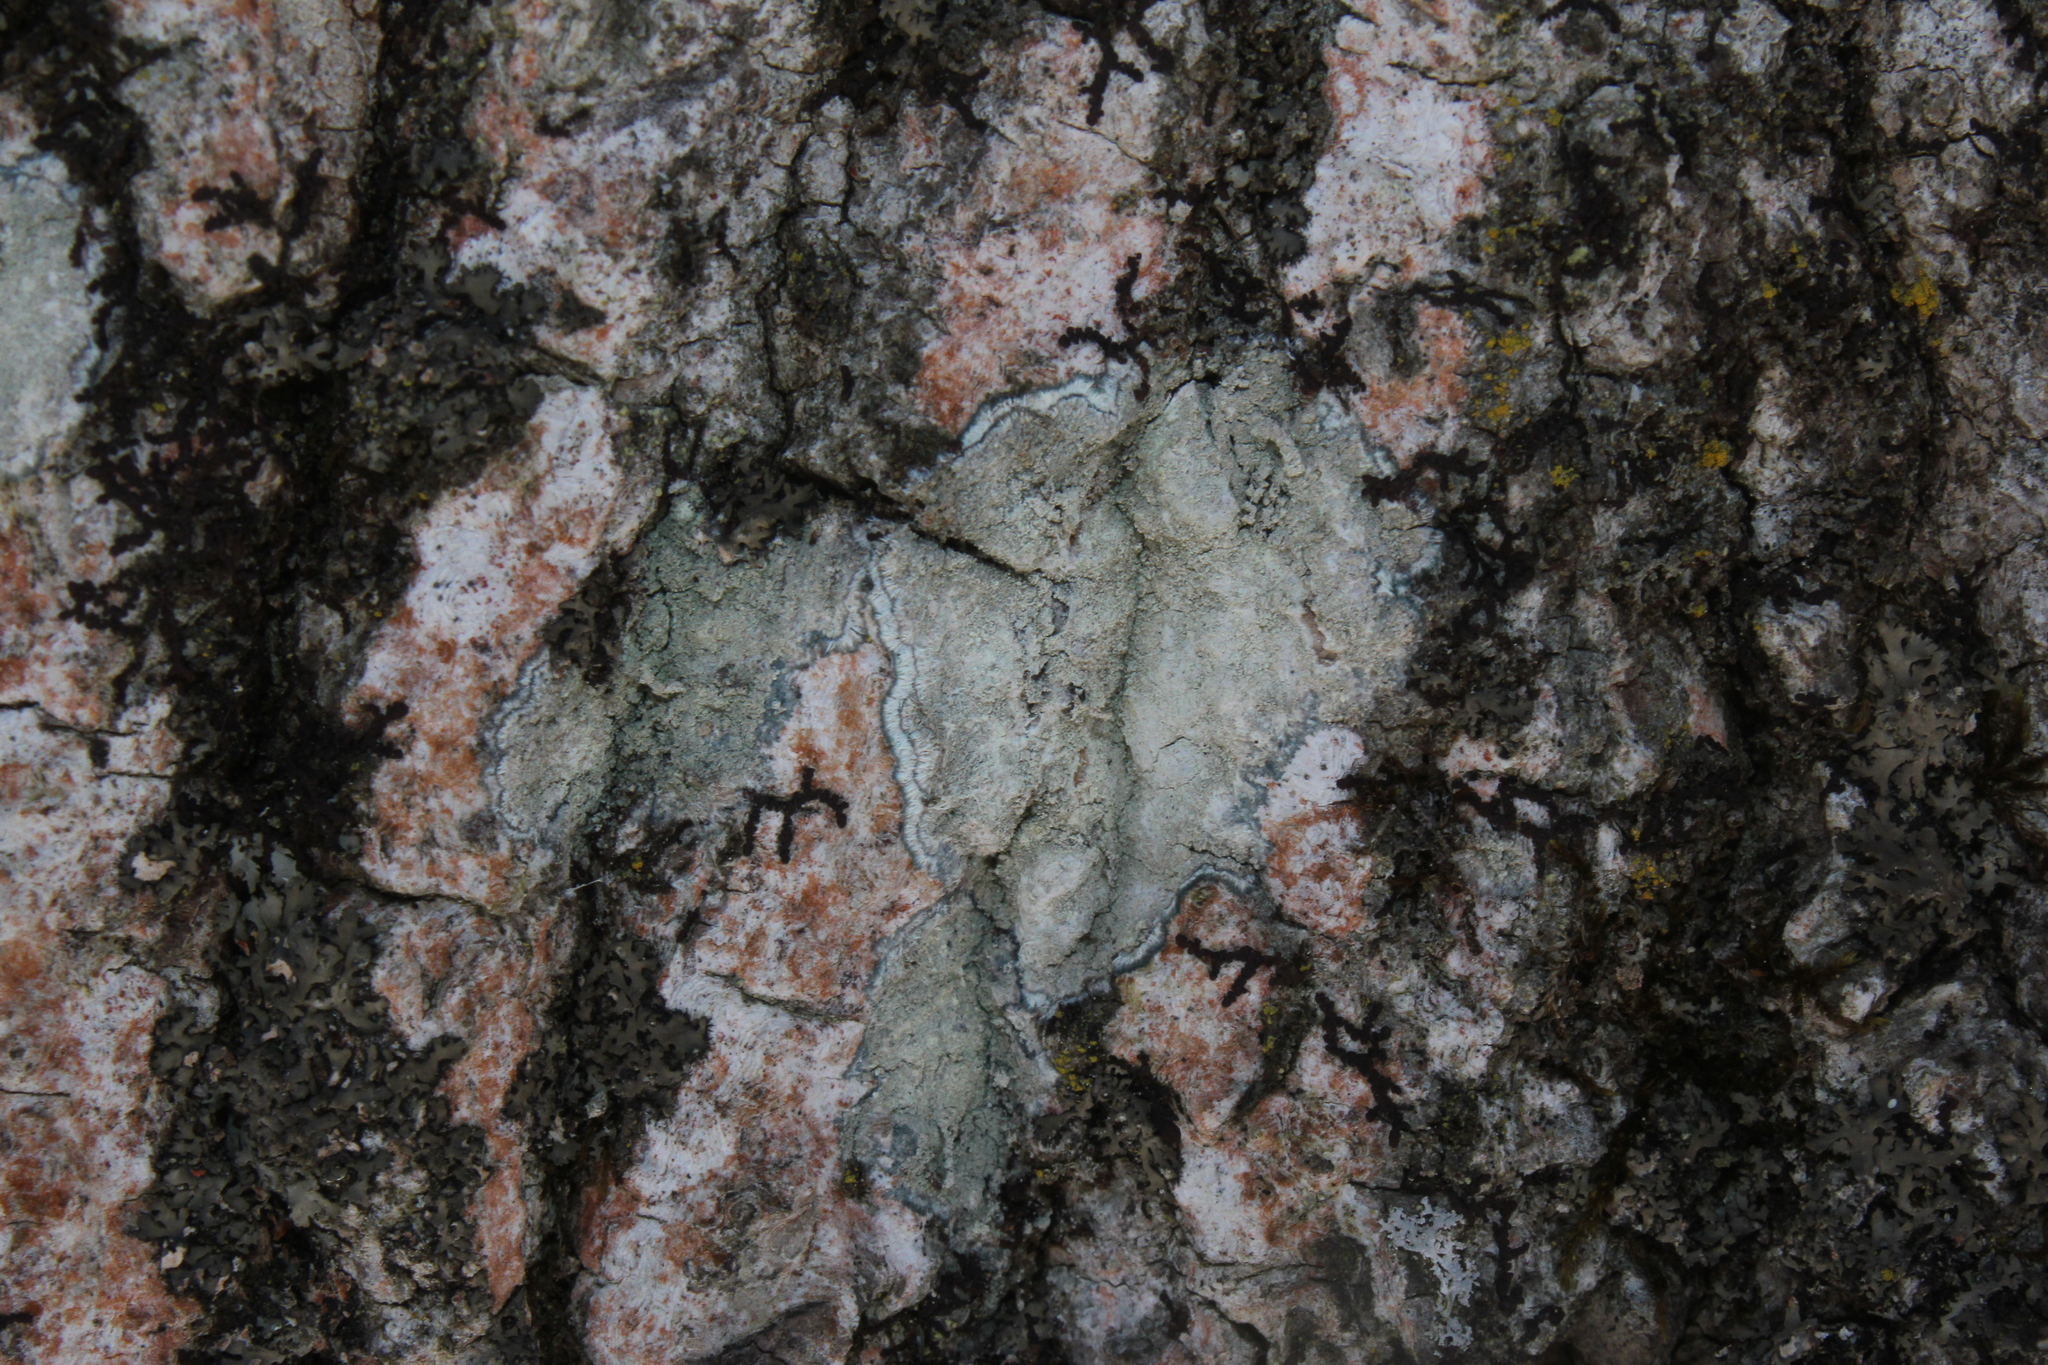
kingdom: Fungi
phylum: Ascomycota
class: Lecanoromycetes
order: Pertusariales
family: Pertusariaceae
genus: Verseghya
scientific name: Verseghya thysanophora
